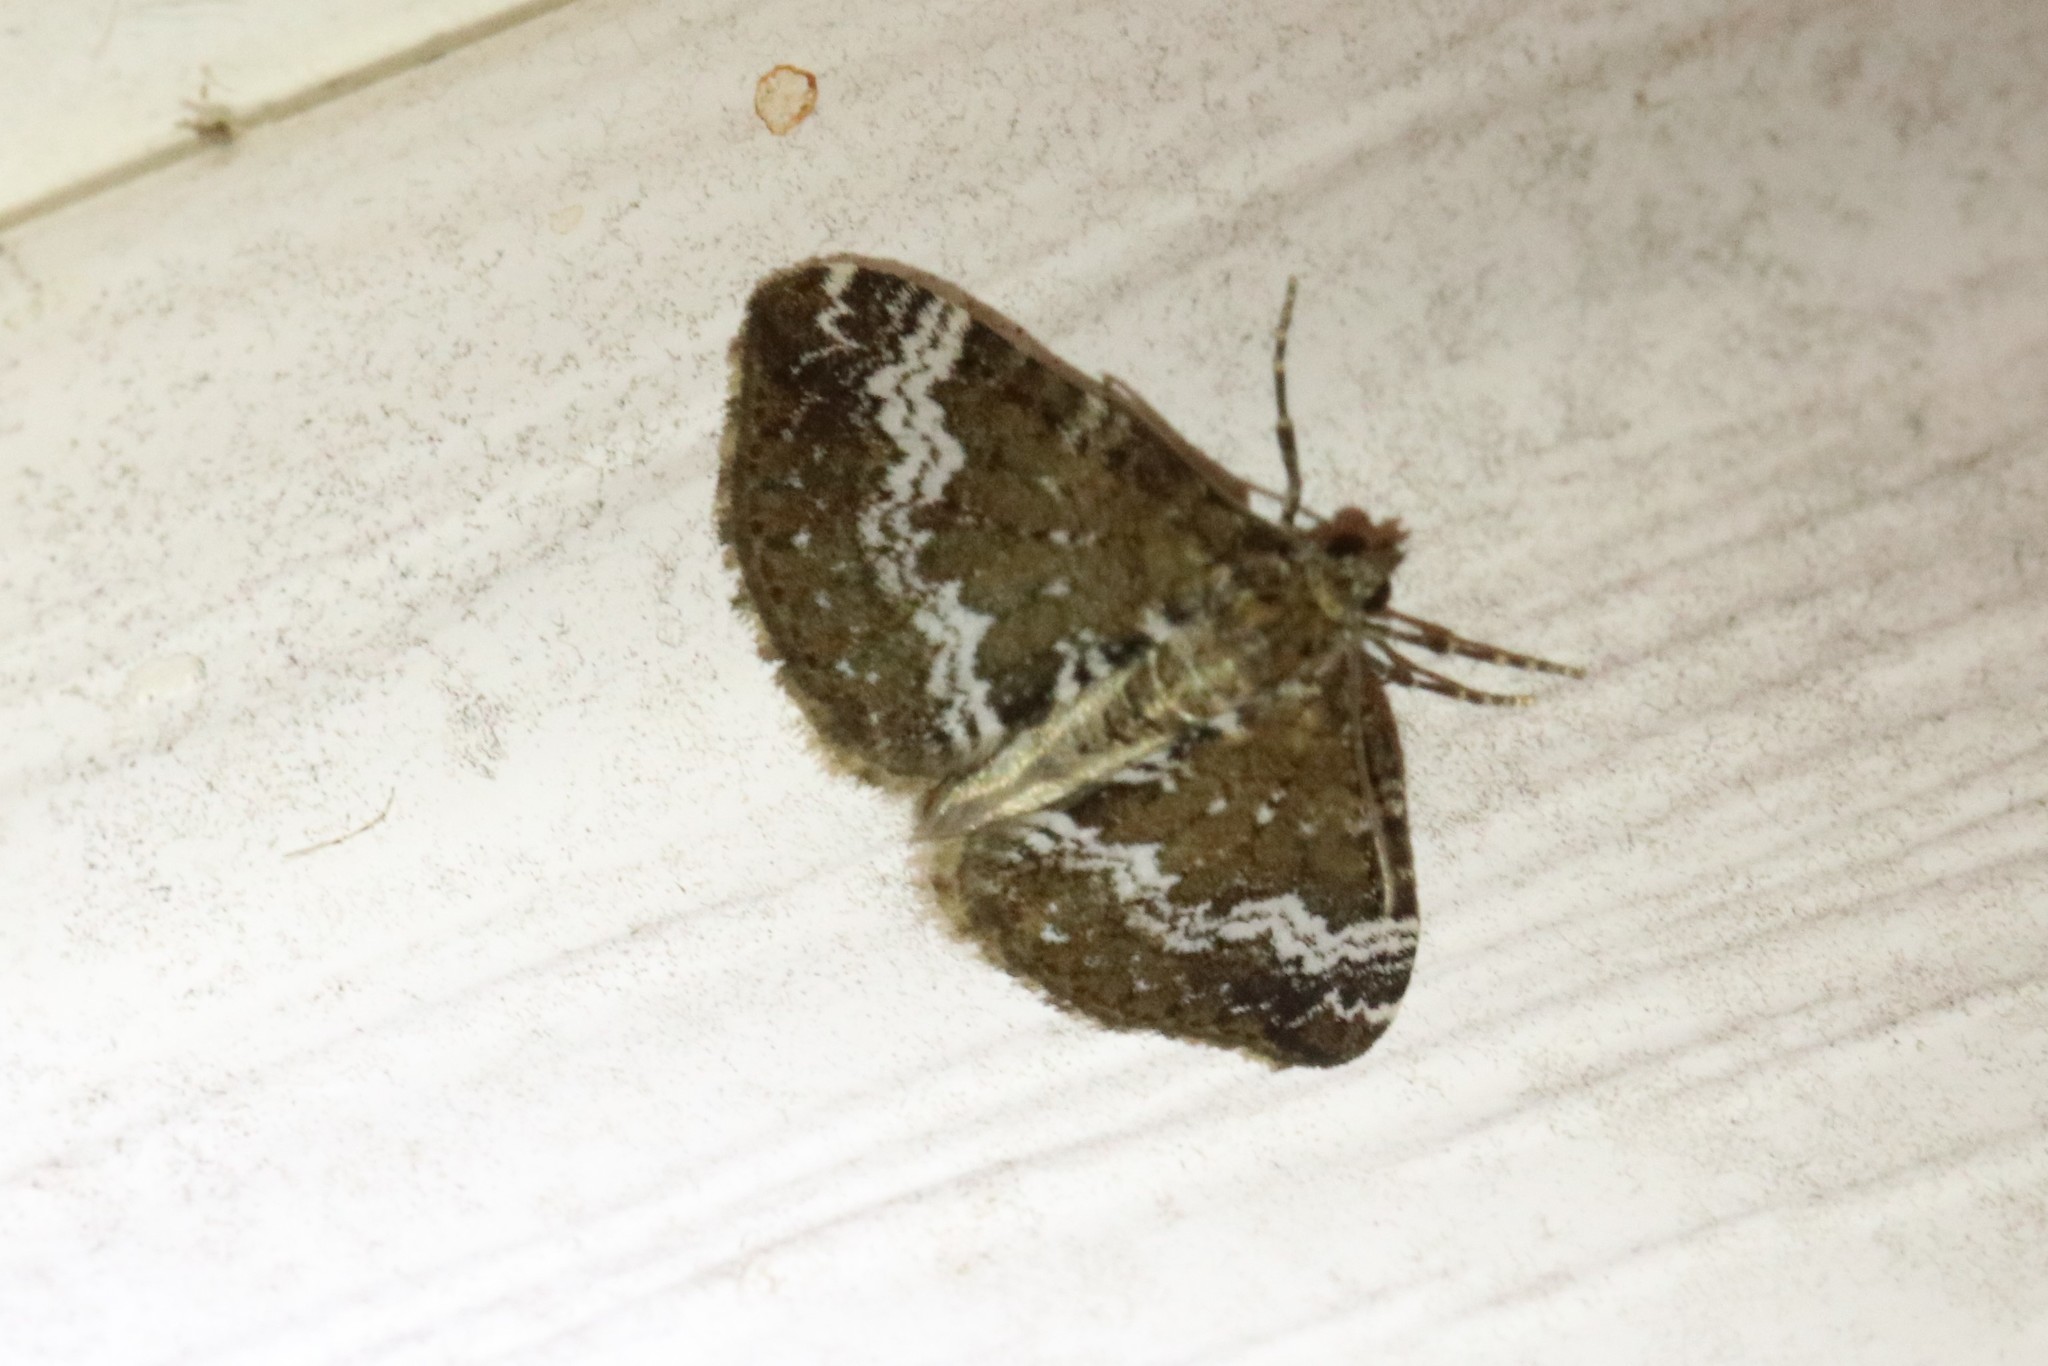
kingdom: Animalia
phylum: Arthropoda
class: Insecta
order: Lepidoptera
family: Geometridae
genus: Perizoma
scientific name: Perizoma alchemillata
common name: Small rivulet
